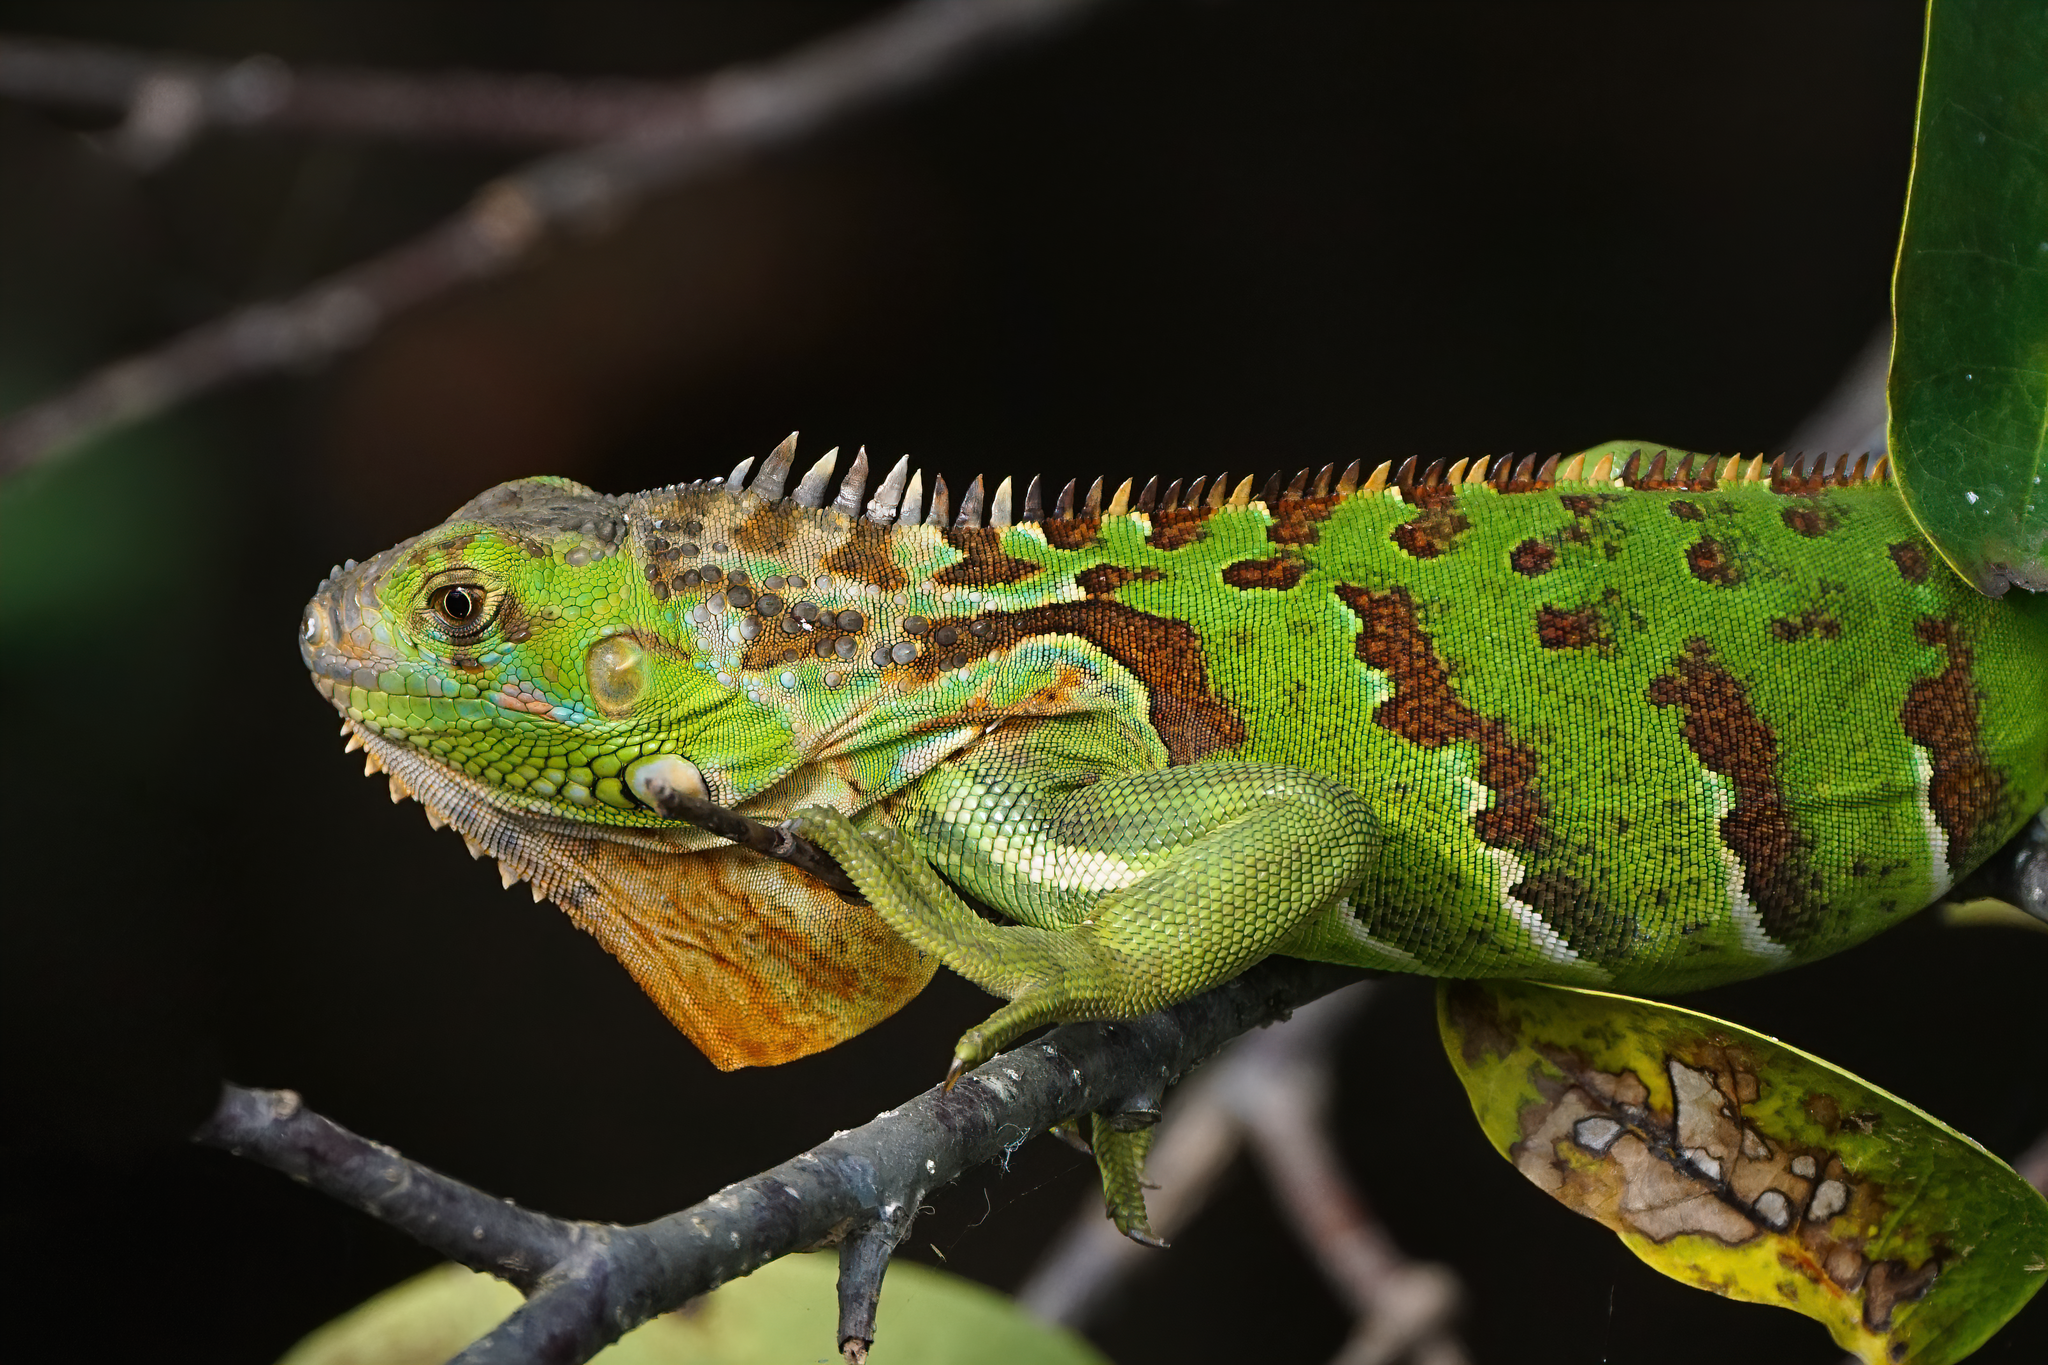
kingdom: Animalia
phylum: Chordata
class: Squamata
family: Iguanidae
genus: Iguana
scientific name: Iguana iguana
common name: Green iguana
